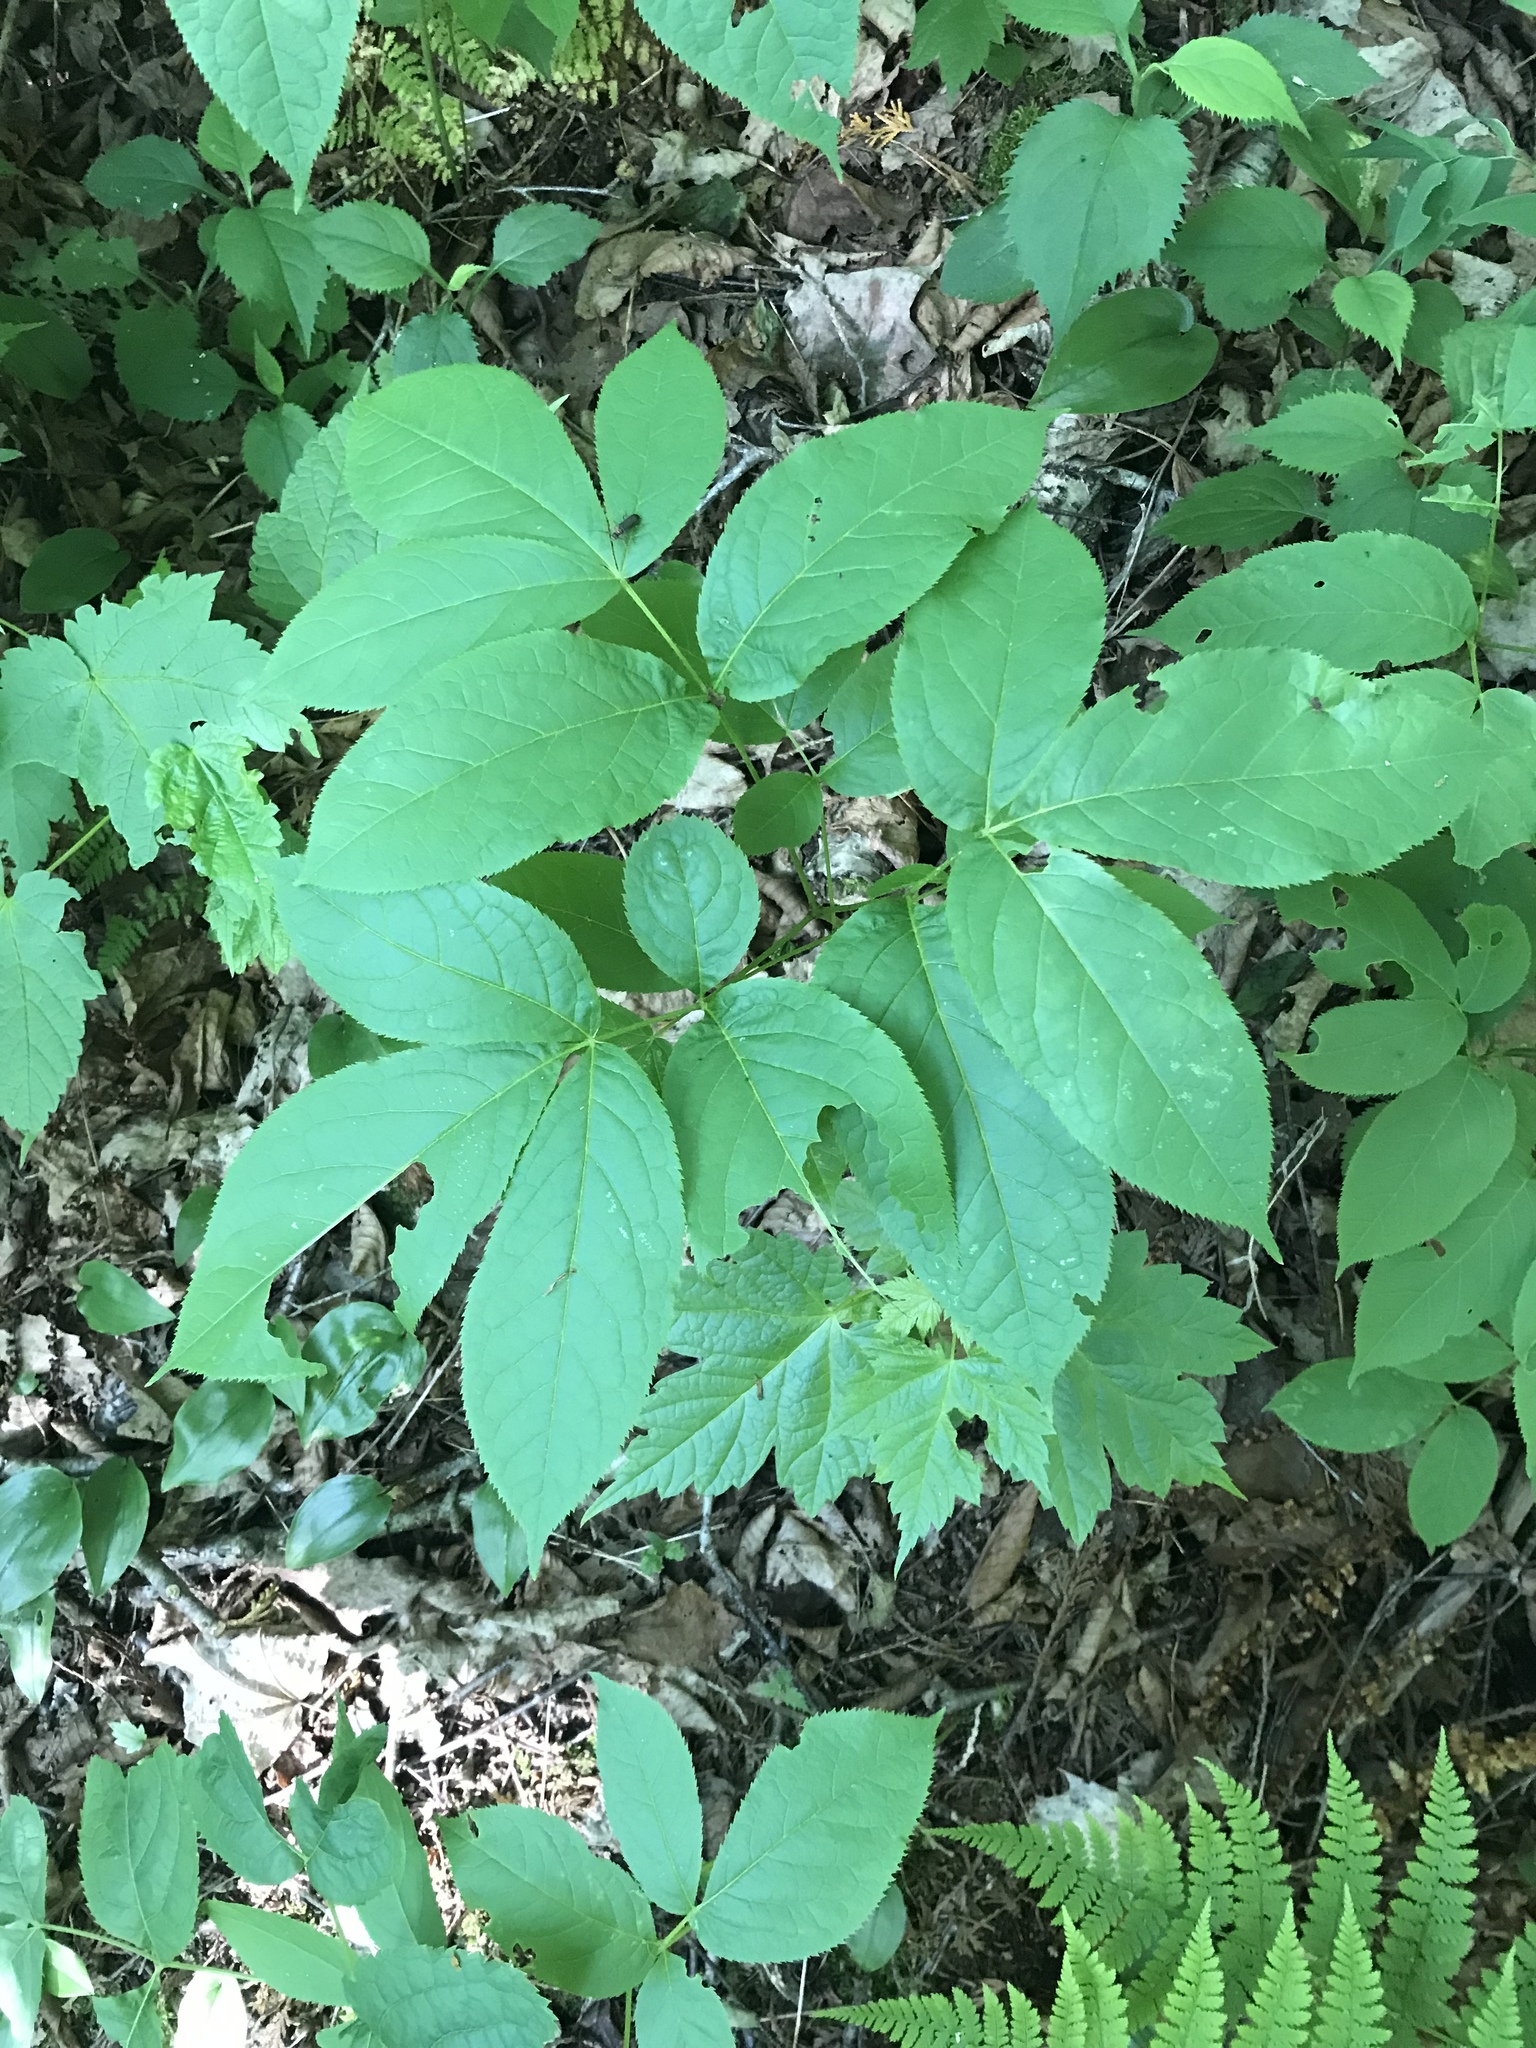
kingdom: Plantae
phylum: Tracheophyta
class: Magnoliopsida
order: Apiales
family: Araliaceae
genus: Aralia
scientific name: Aralia nudicaulis
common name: Wild sarsaparilla
